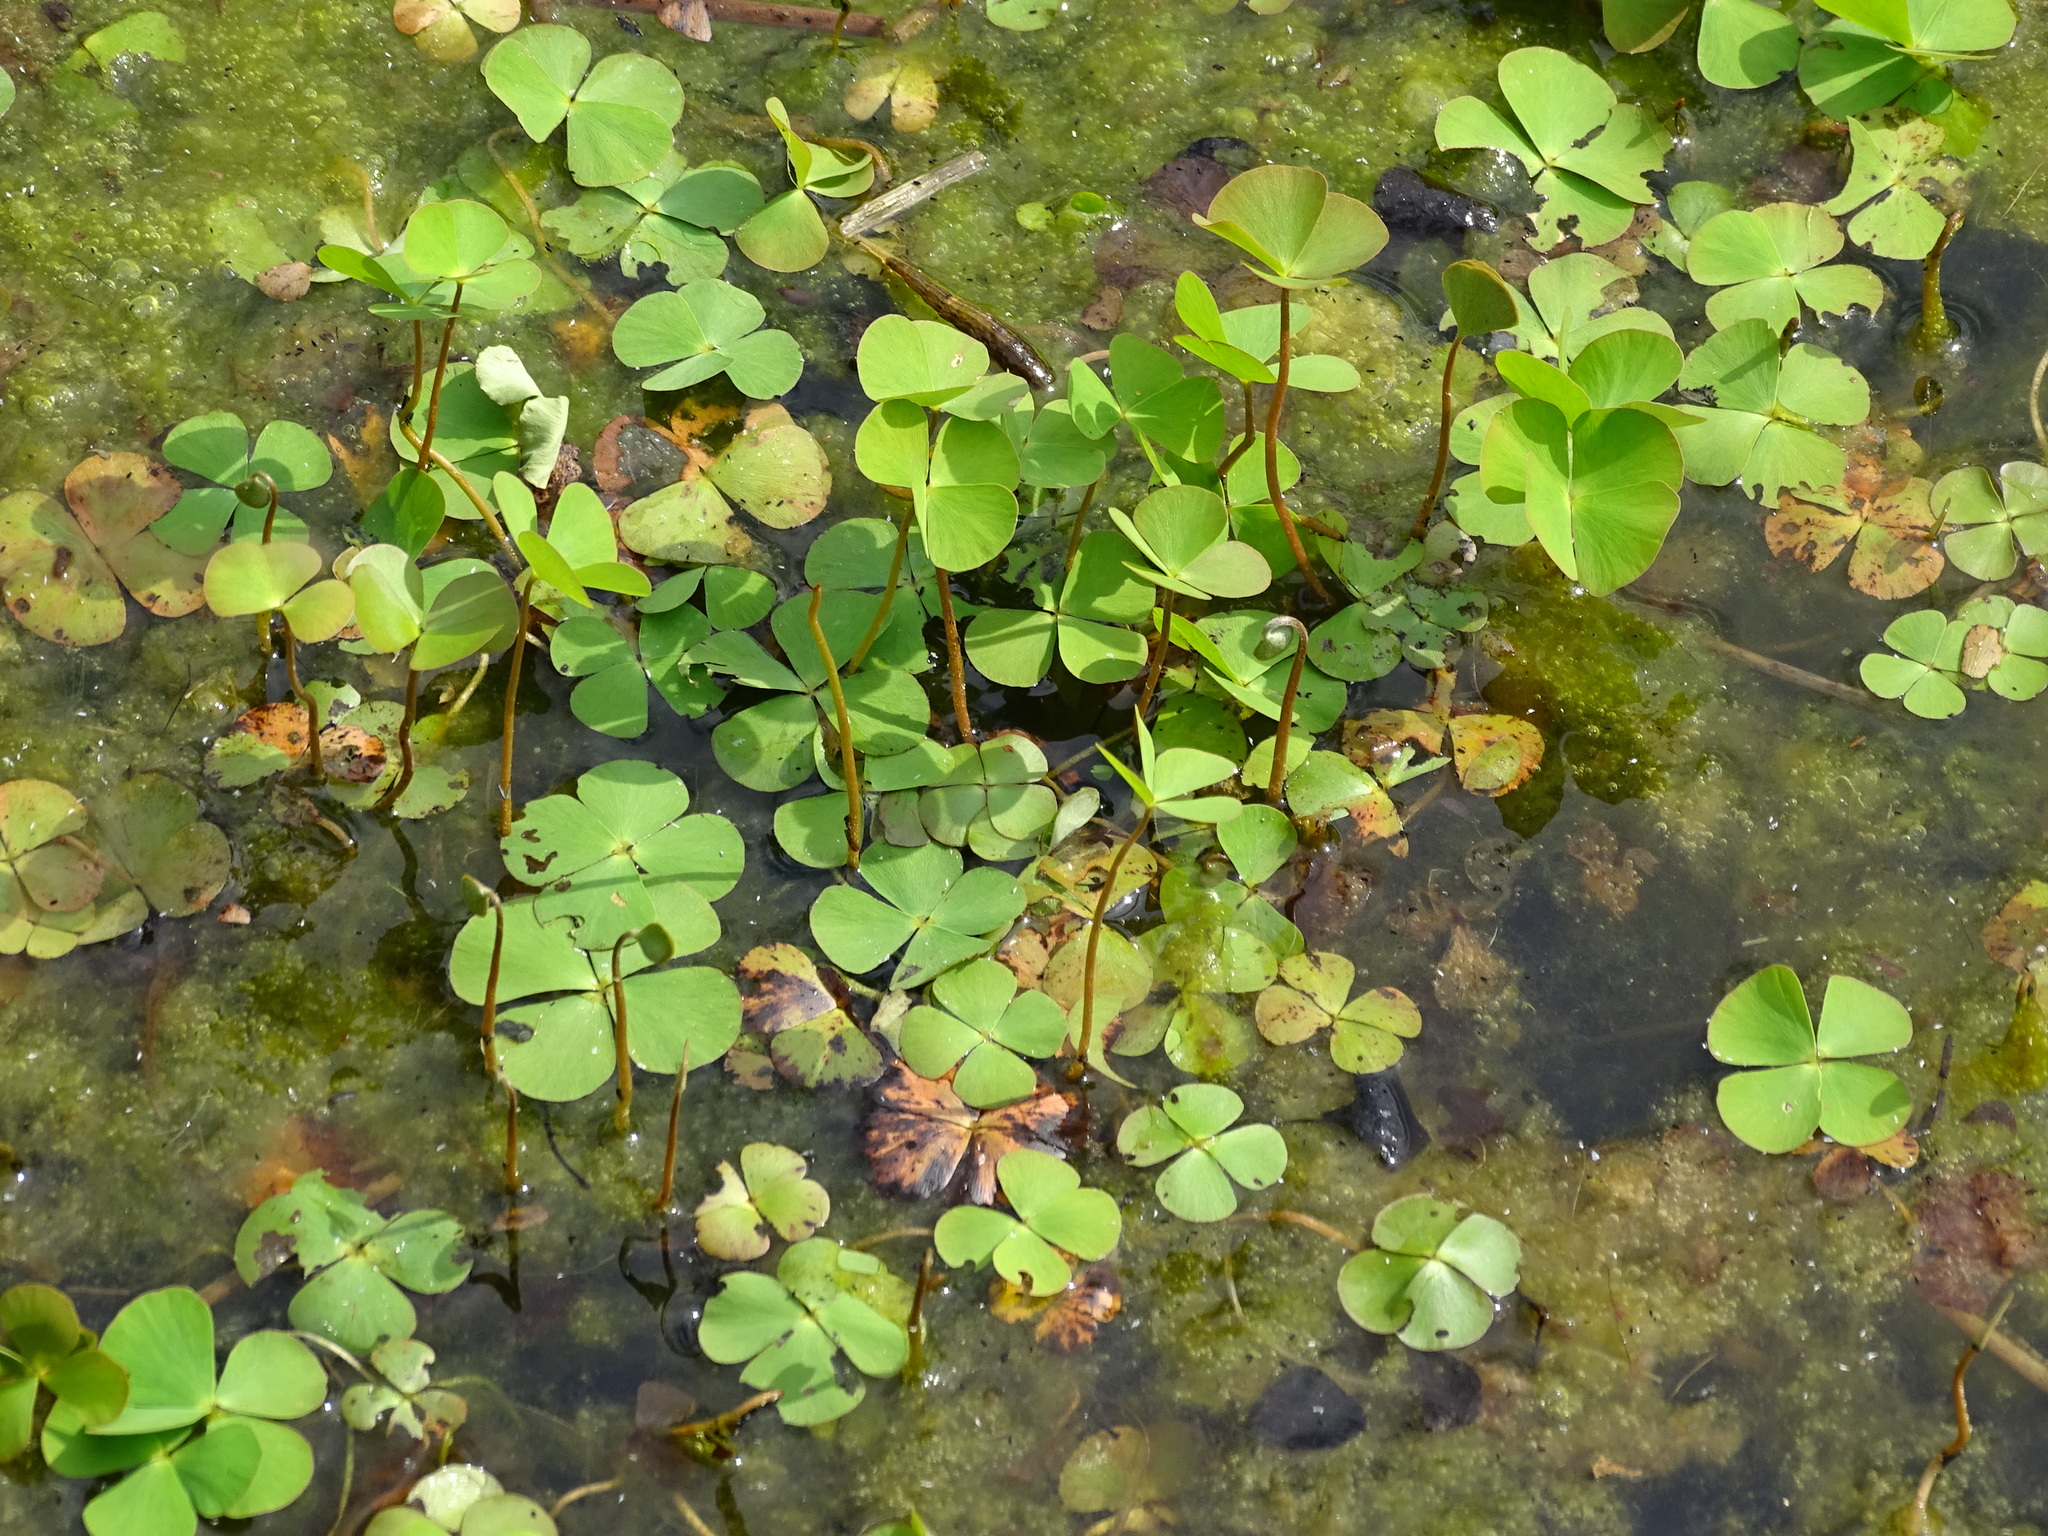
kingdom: Plantae
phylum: Tracheophyta
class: Polypodiopsida
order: Salviniales
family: Marsileaceae
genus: Marsilea
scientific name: Marsilea quadrifolia
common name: Water shamrock
